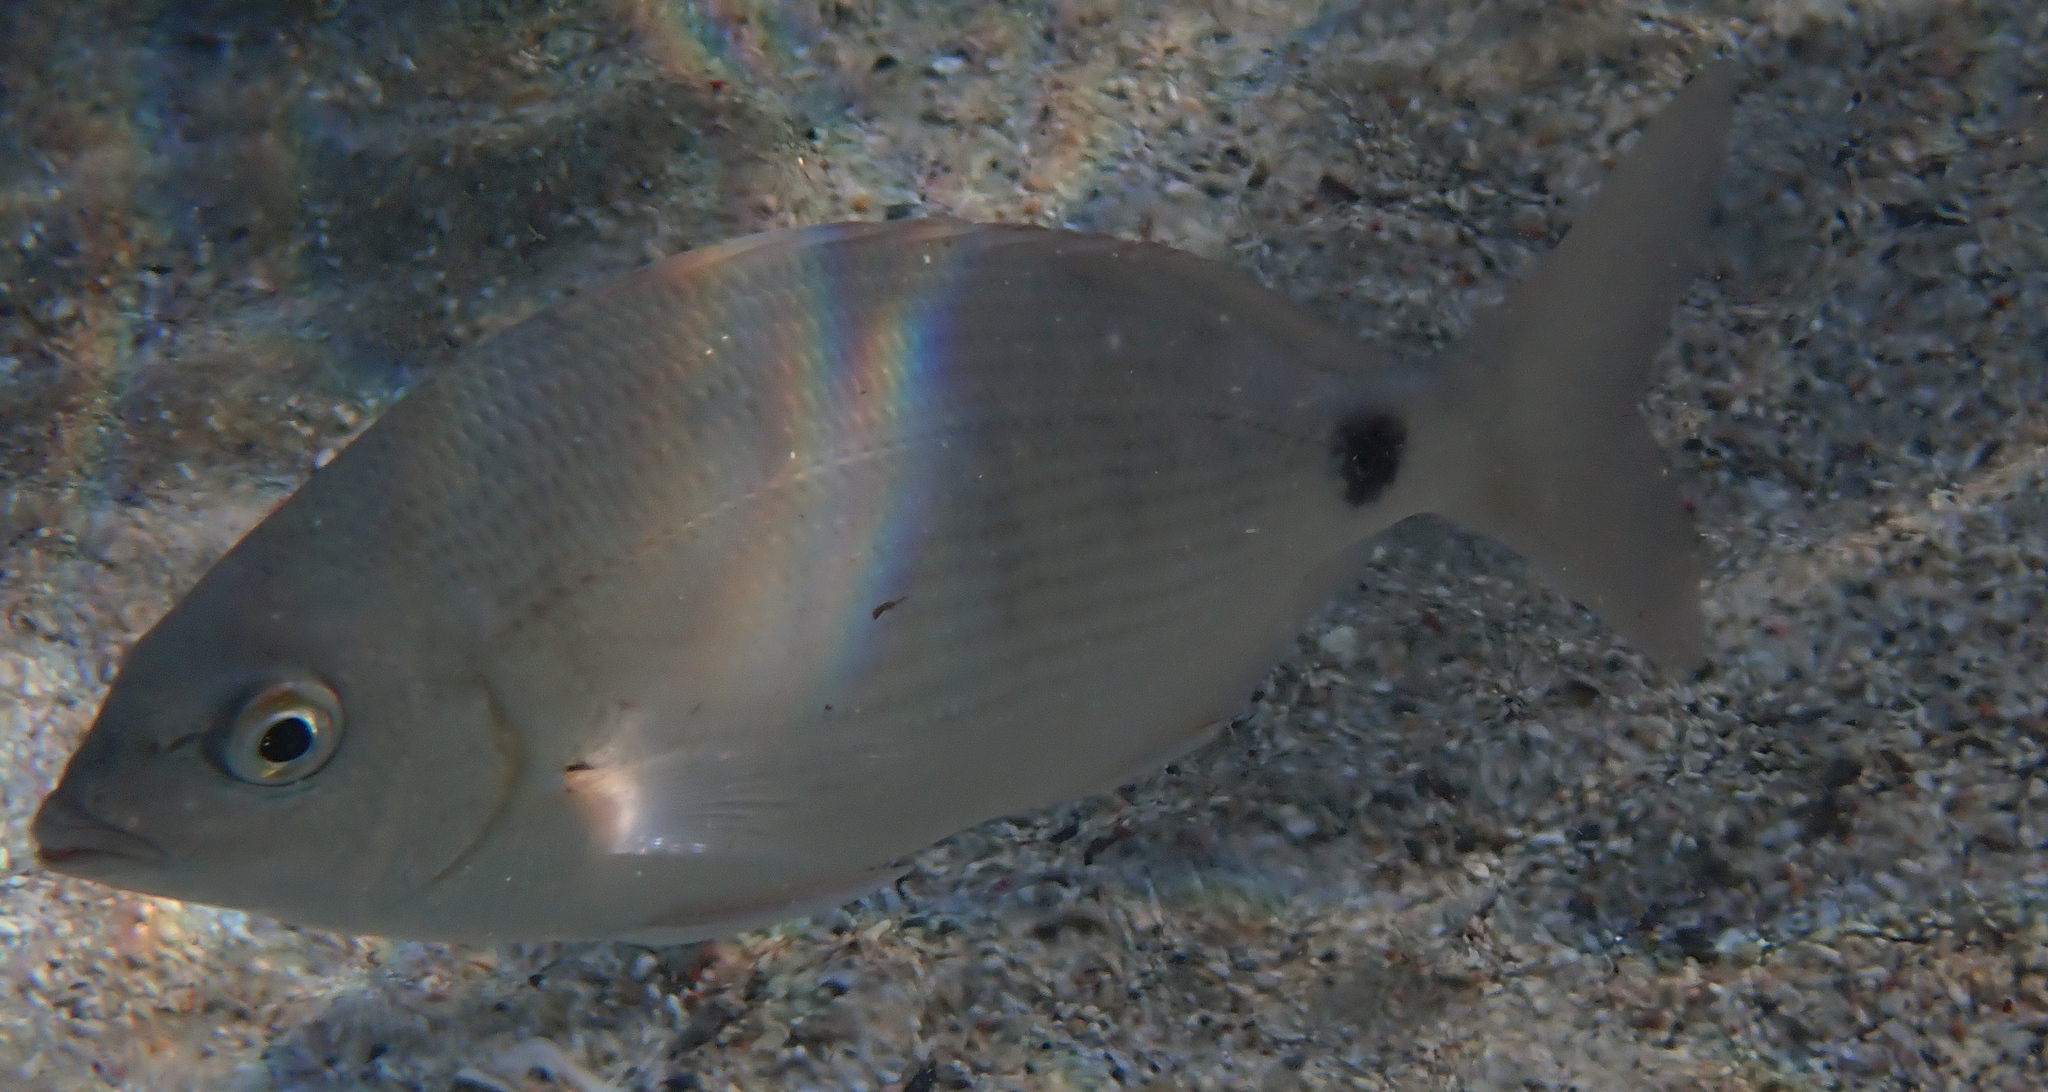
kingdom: Animalia
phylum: Chordata
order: Perciformes
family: Sparidae
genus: Diplodus
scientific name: Diplodus noct
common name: Arabian pinfish
